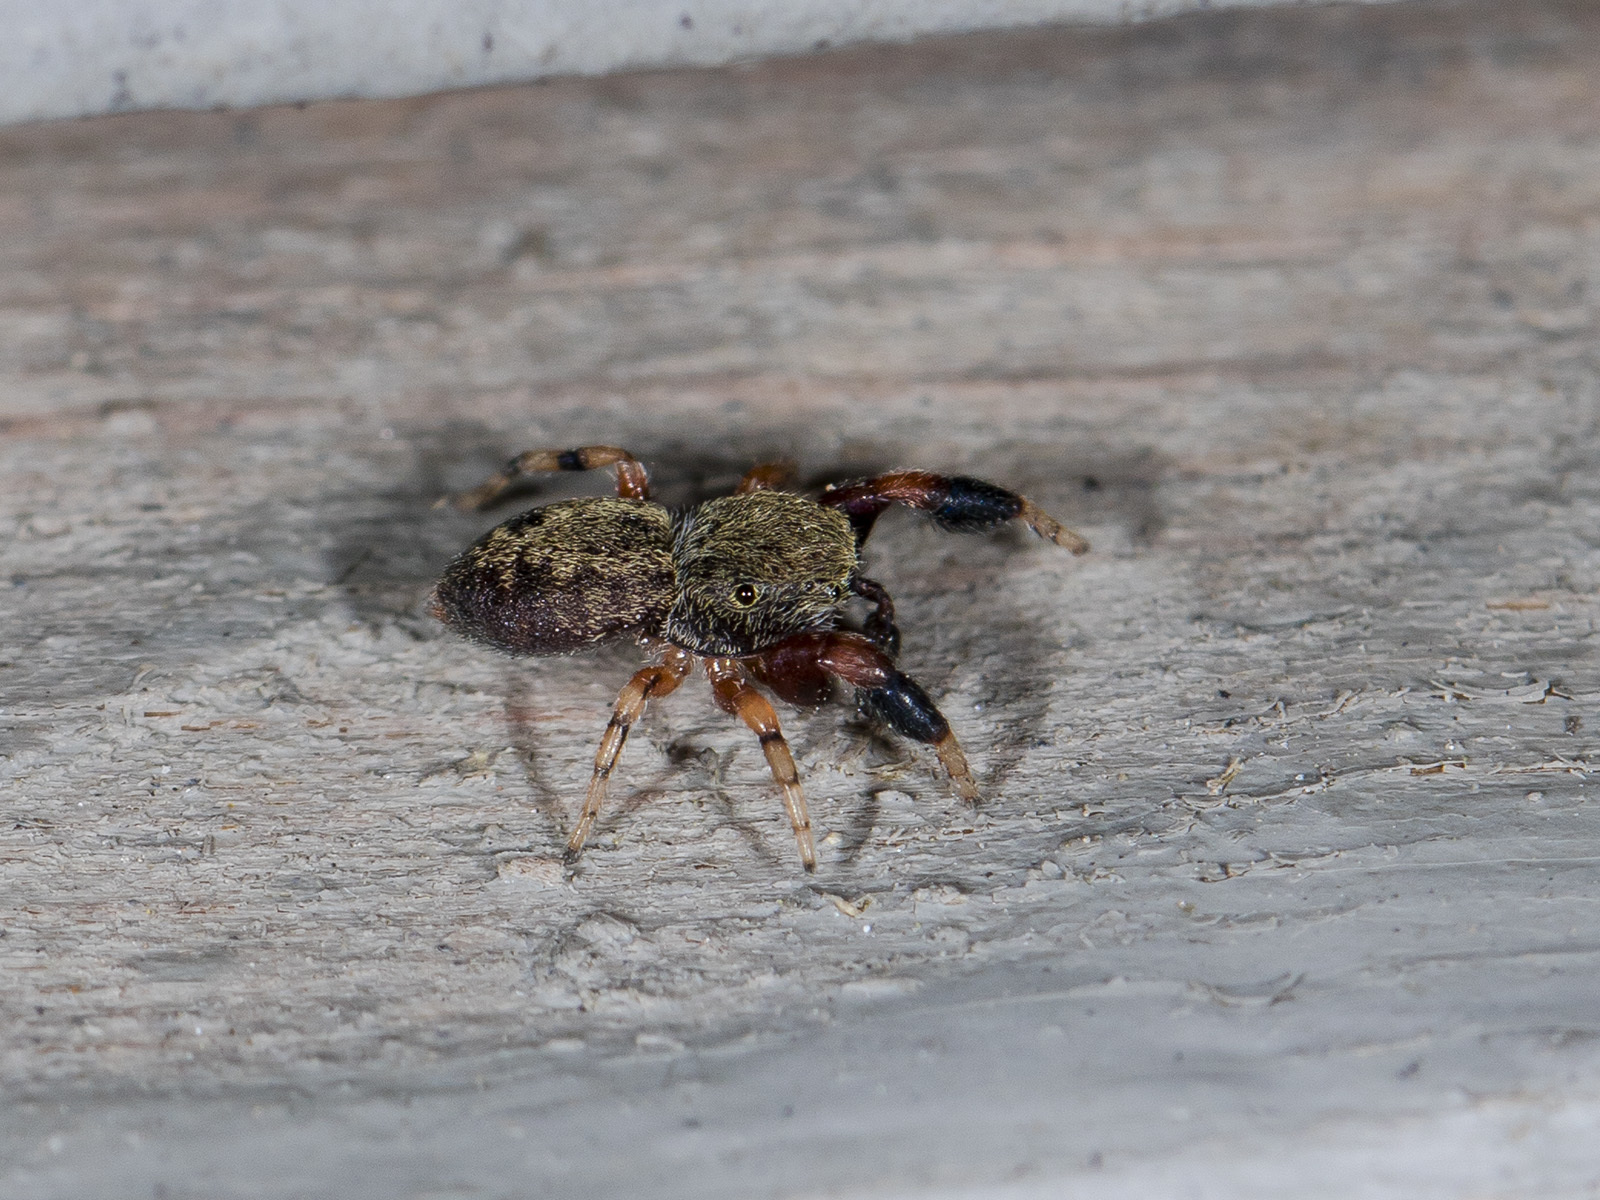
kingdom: Animalia
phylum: Arthropoda
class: Arachnida
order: Araneae
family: Salticidae
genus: Ballus
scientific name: Ballus chalybeius
